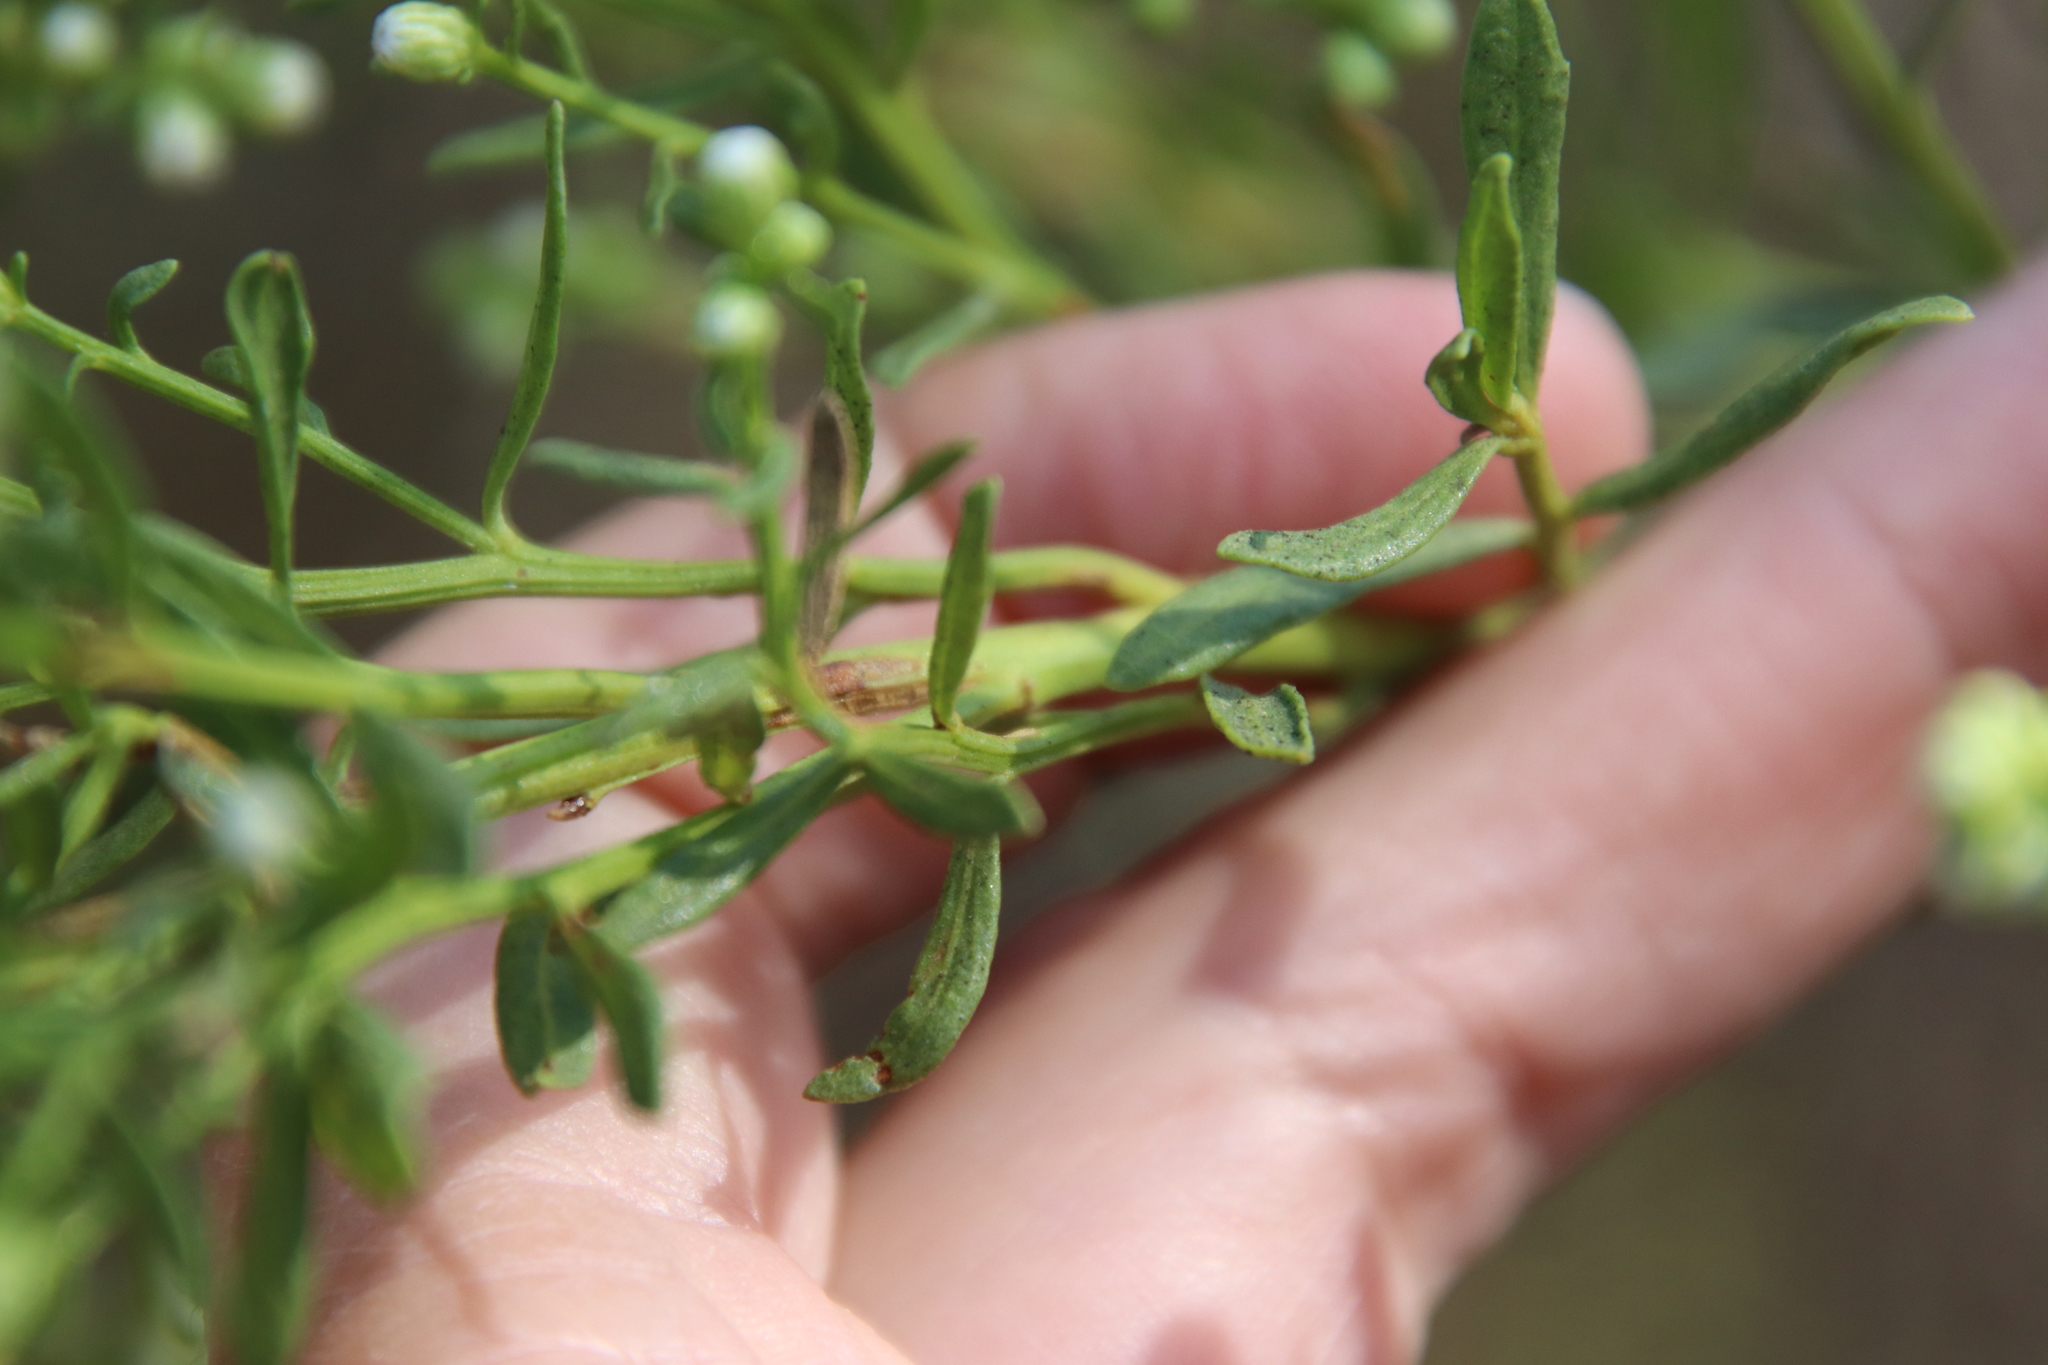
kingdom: Plantae
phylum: Tracheophyta
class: Magnoliopsida
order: Asterales
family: Asteraceae
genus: Baccharis
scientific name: Baccharis pilularis
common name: Coyotebrush
